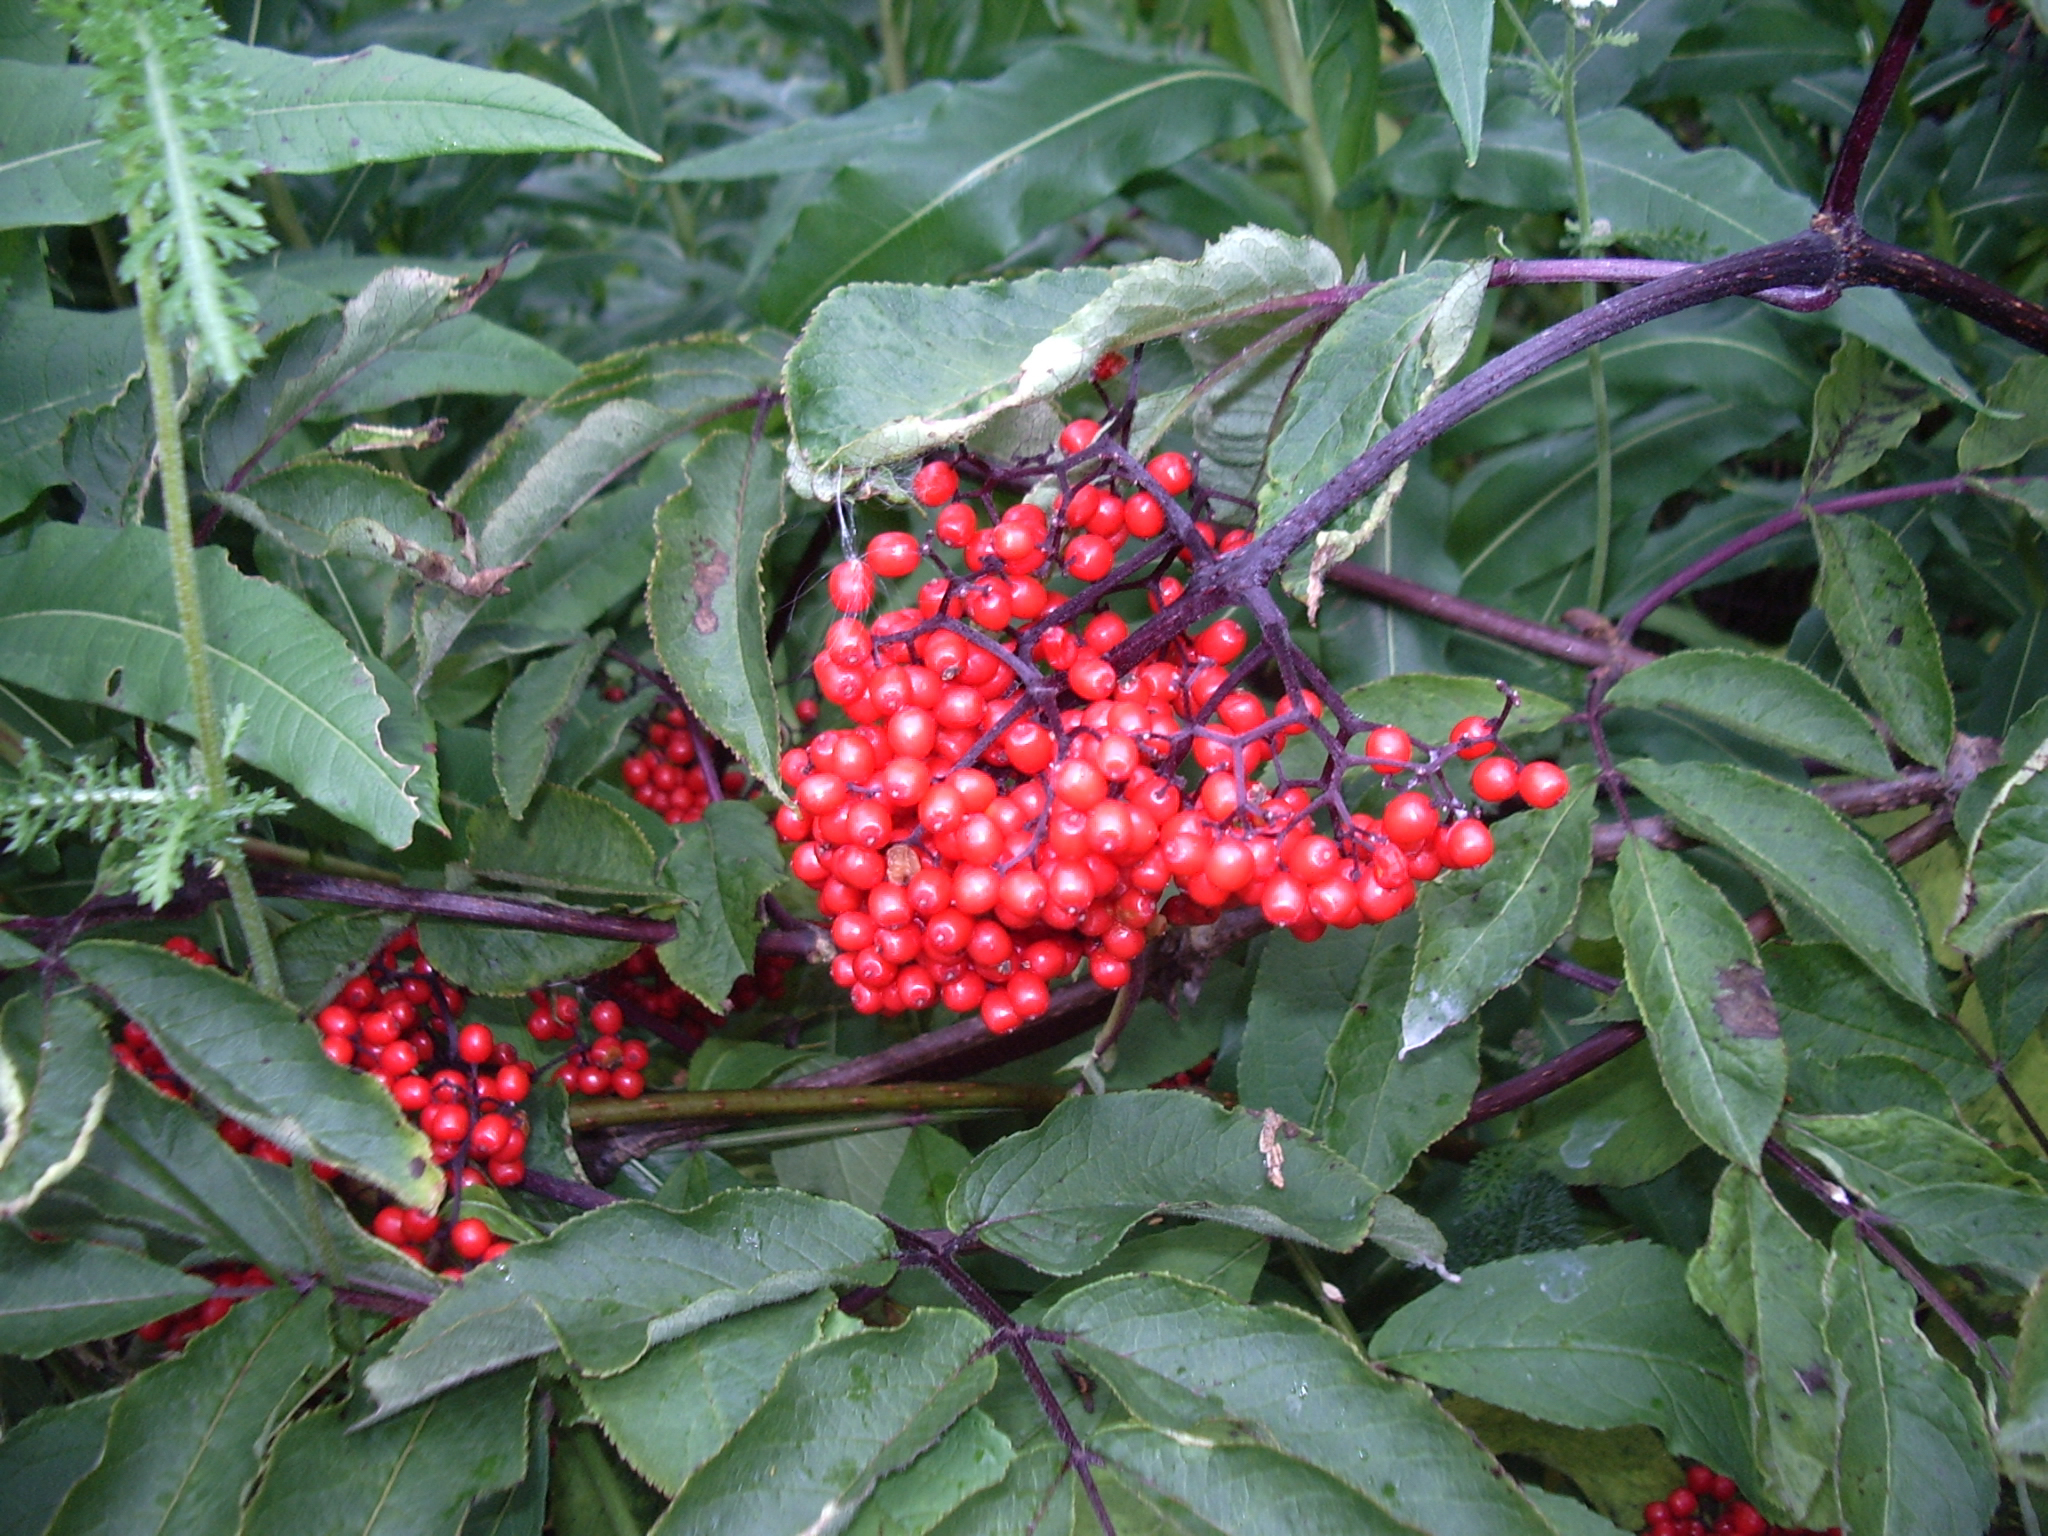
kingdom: Plantae
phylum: Tracheophyta
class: Magnoliopsida
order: Dipsacales
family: Viburnaceae
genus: Sambucus
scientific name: Sambucus racemosa
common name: Red-berried elder
